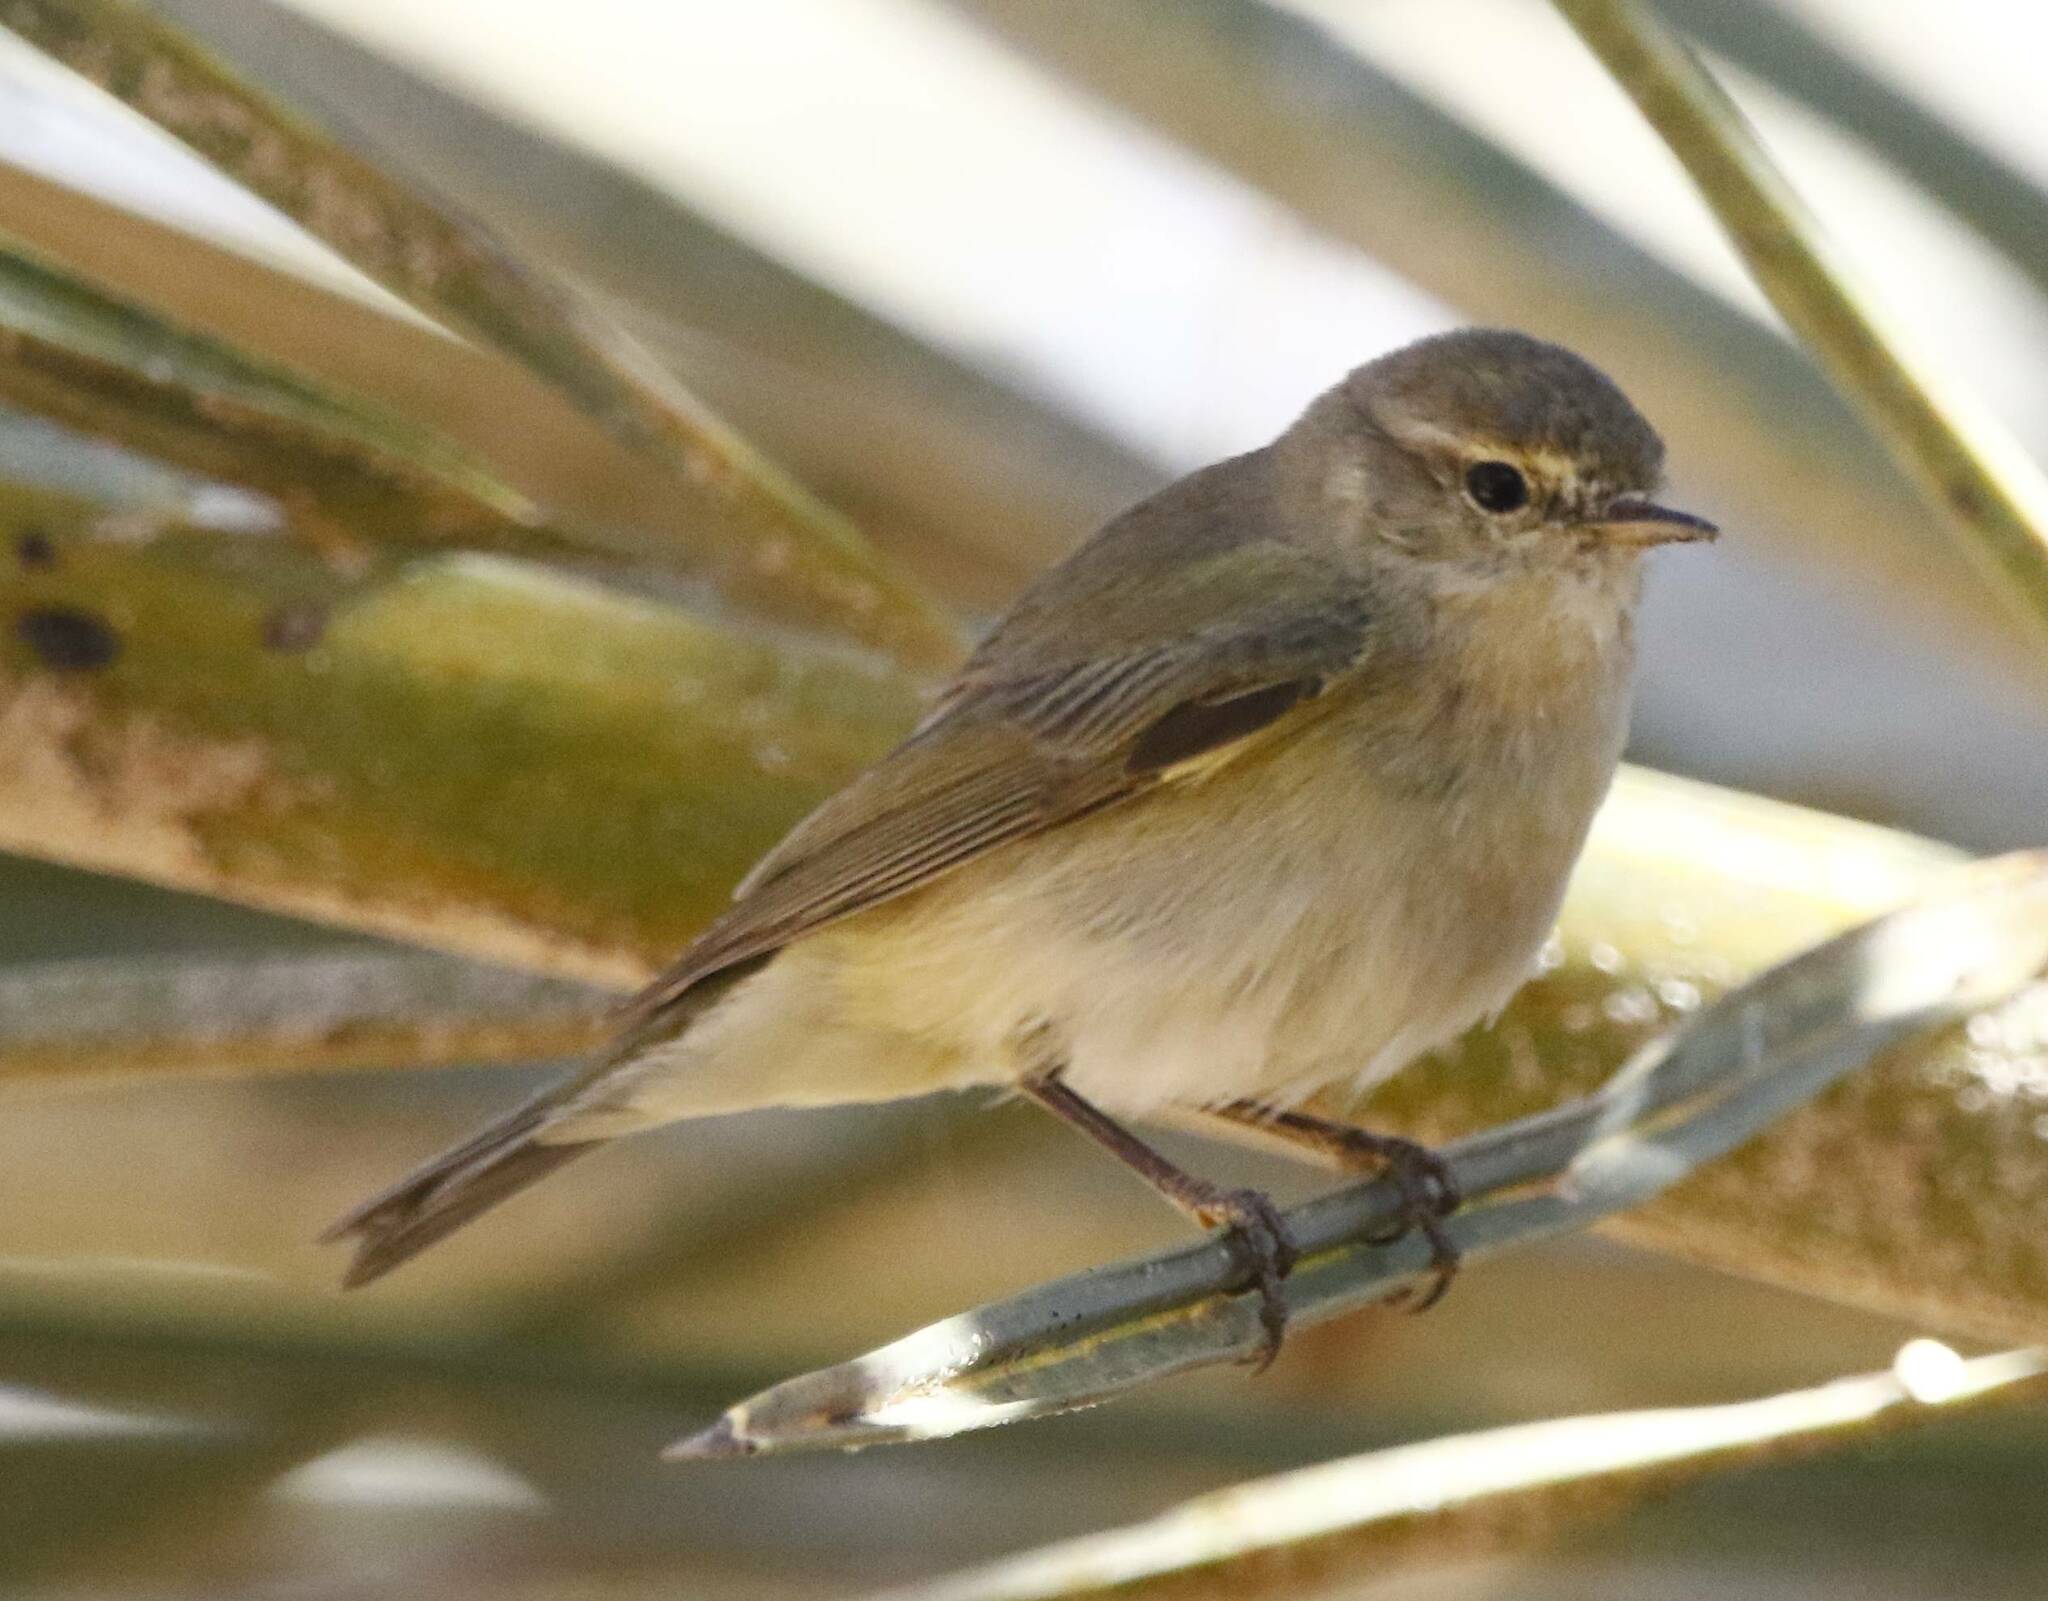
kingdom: Animalia
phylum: Chordata
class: Aves
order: Passeriformes
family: Phylloscopidae
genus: Phylloscopus
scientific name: Phylloscopus collybita
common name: Common chiffchaff
